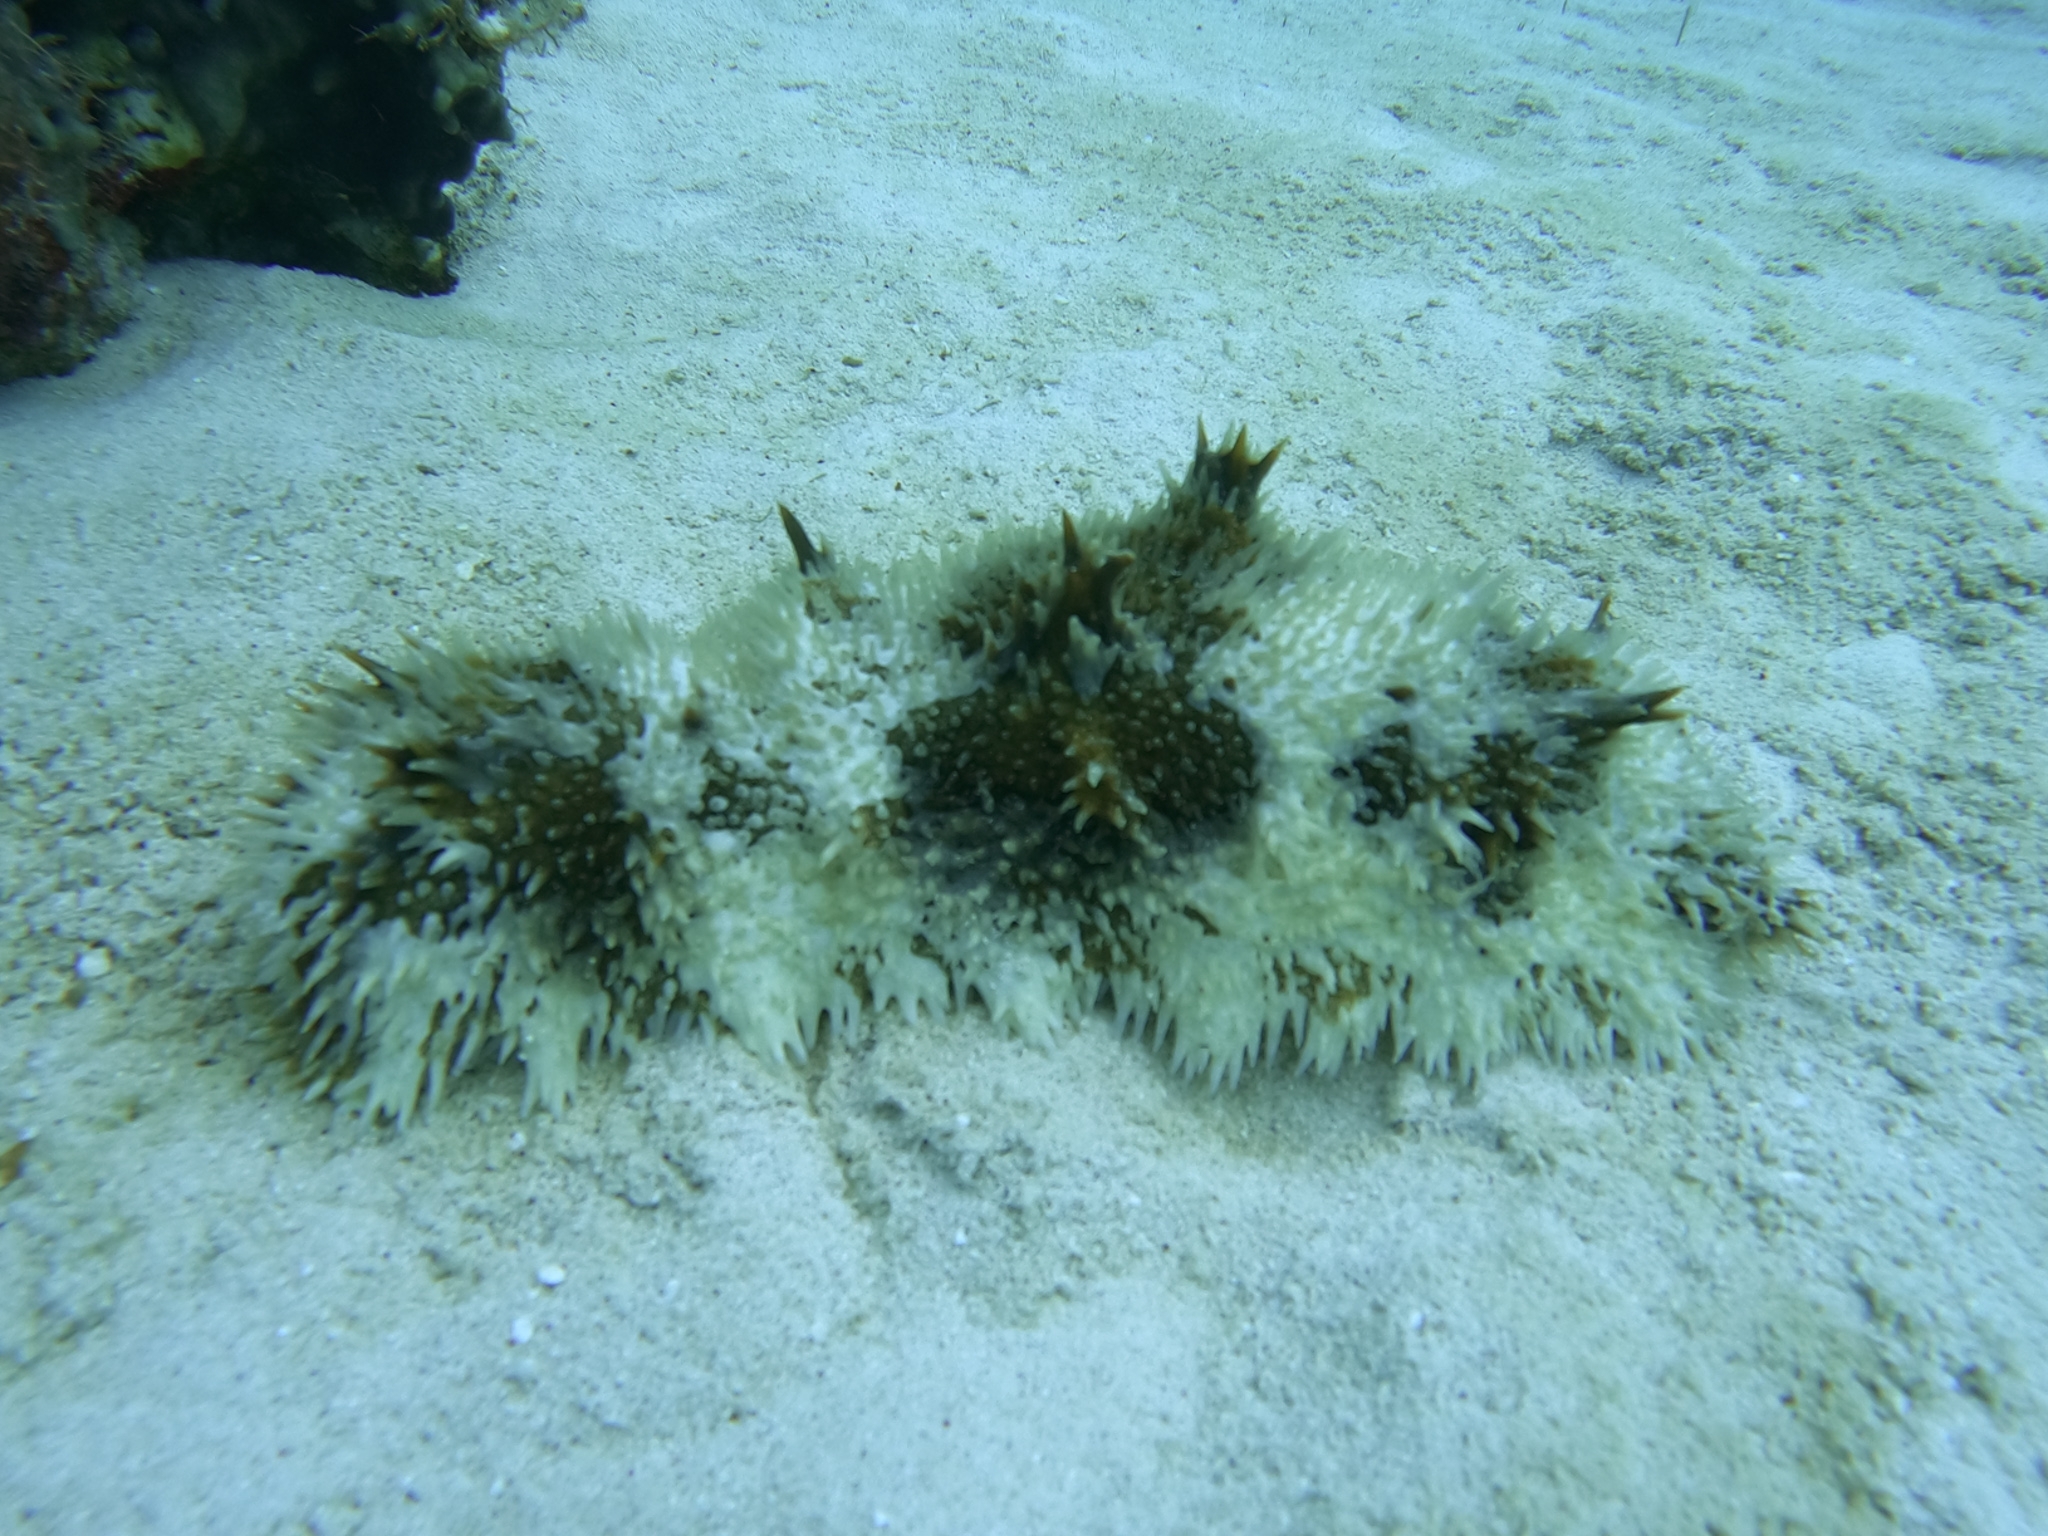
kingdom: Animalia
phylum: Echinodermata
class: Holothuroidea
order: Synallactida
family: Stichopodidae
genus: Astichopus
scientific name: Astichopus multifidus
